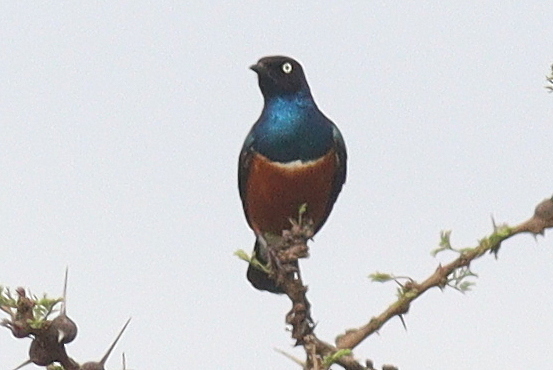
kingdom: Animalia
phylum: Chordata
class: Aves
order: Passeriformes
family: Sturnidae
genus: Lamprotornis
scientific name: Lamprotornis superbus
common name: Superb starling
